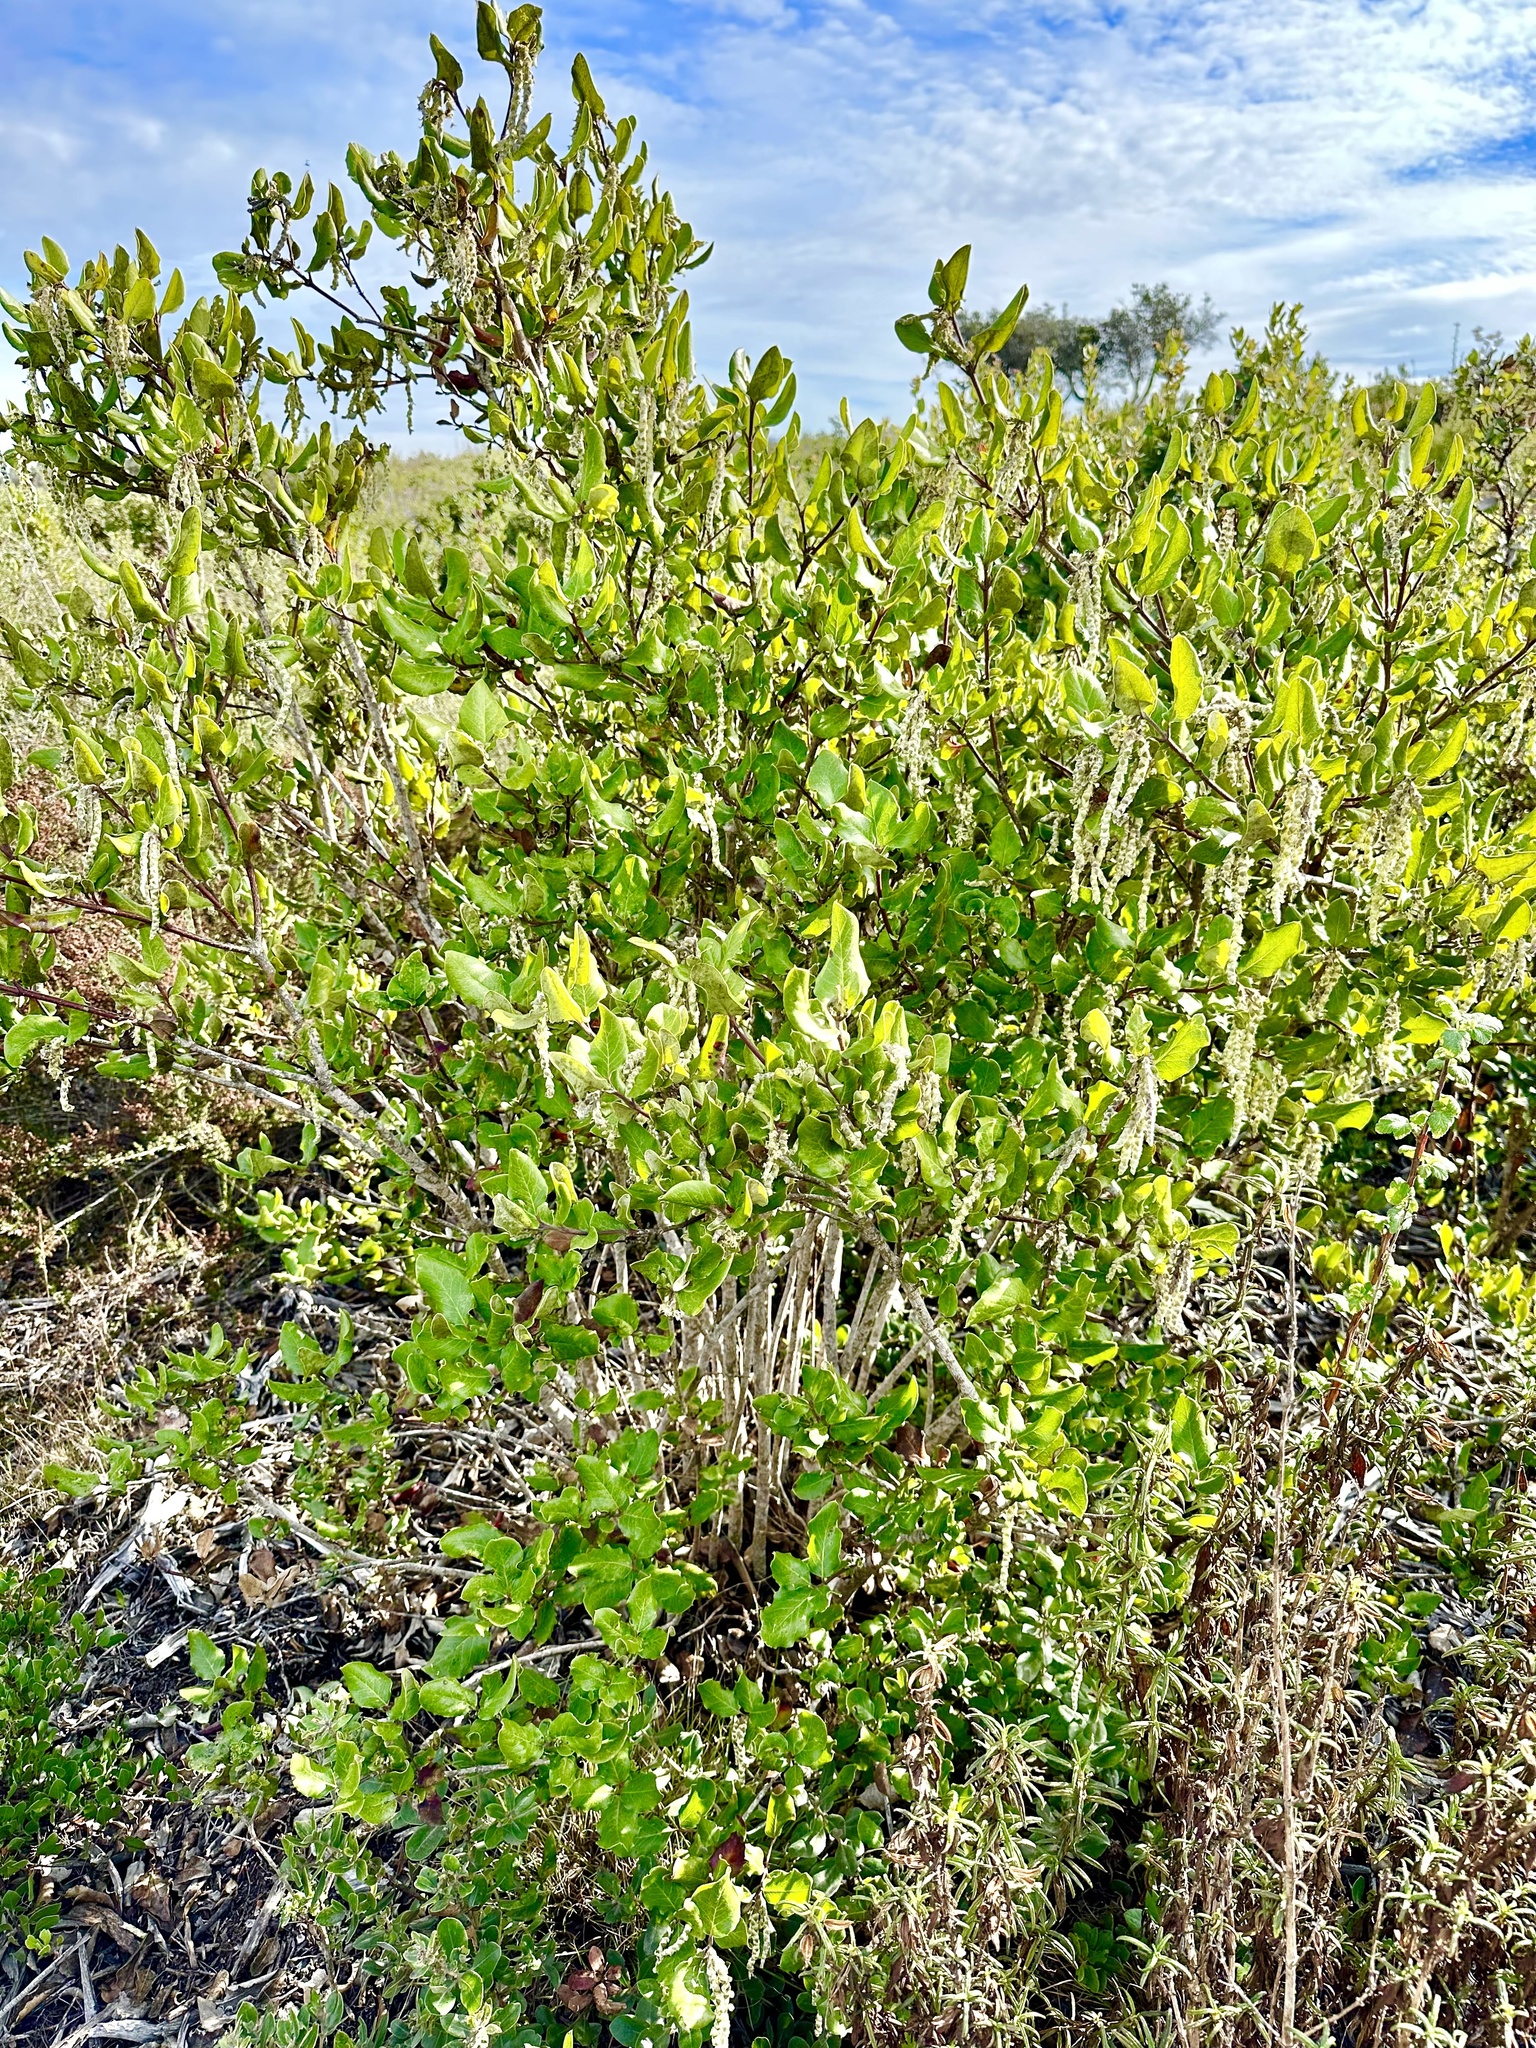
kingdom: Plantae
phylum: Tracheophyta
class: Magnoliopsida
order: Garryales
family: Garryaceae
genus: Garrya
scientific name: Garrya elliptica
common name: Silk-tassel
